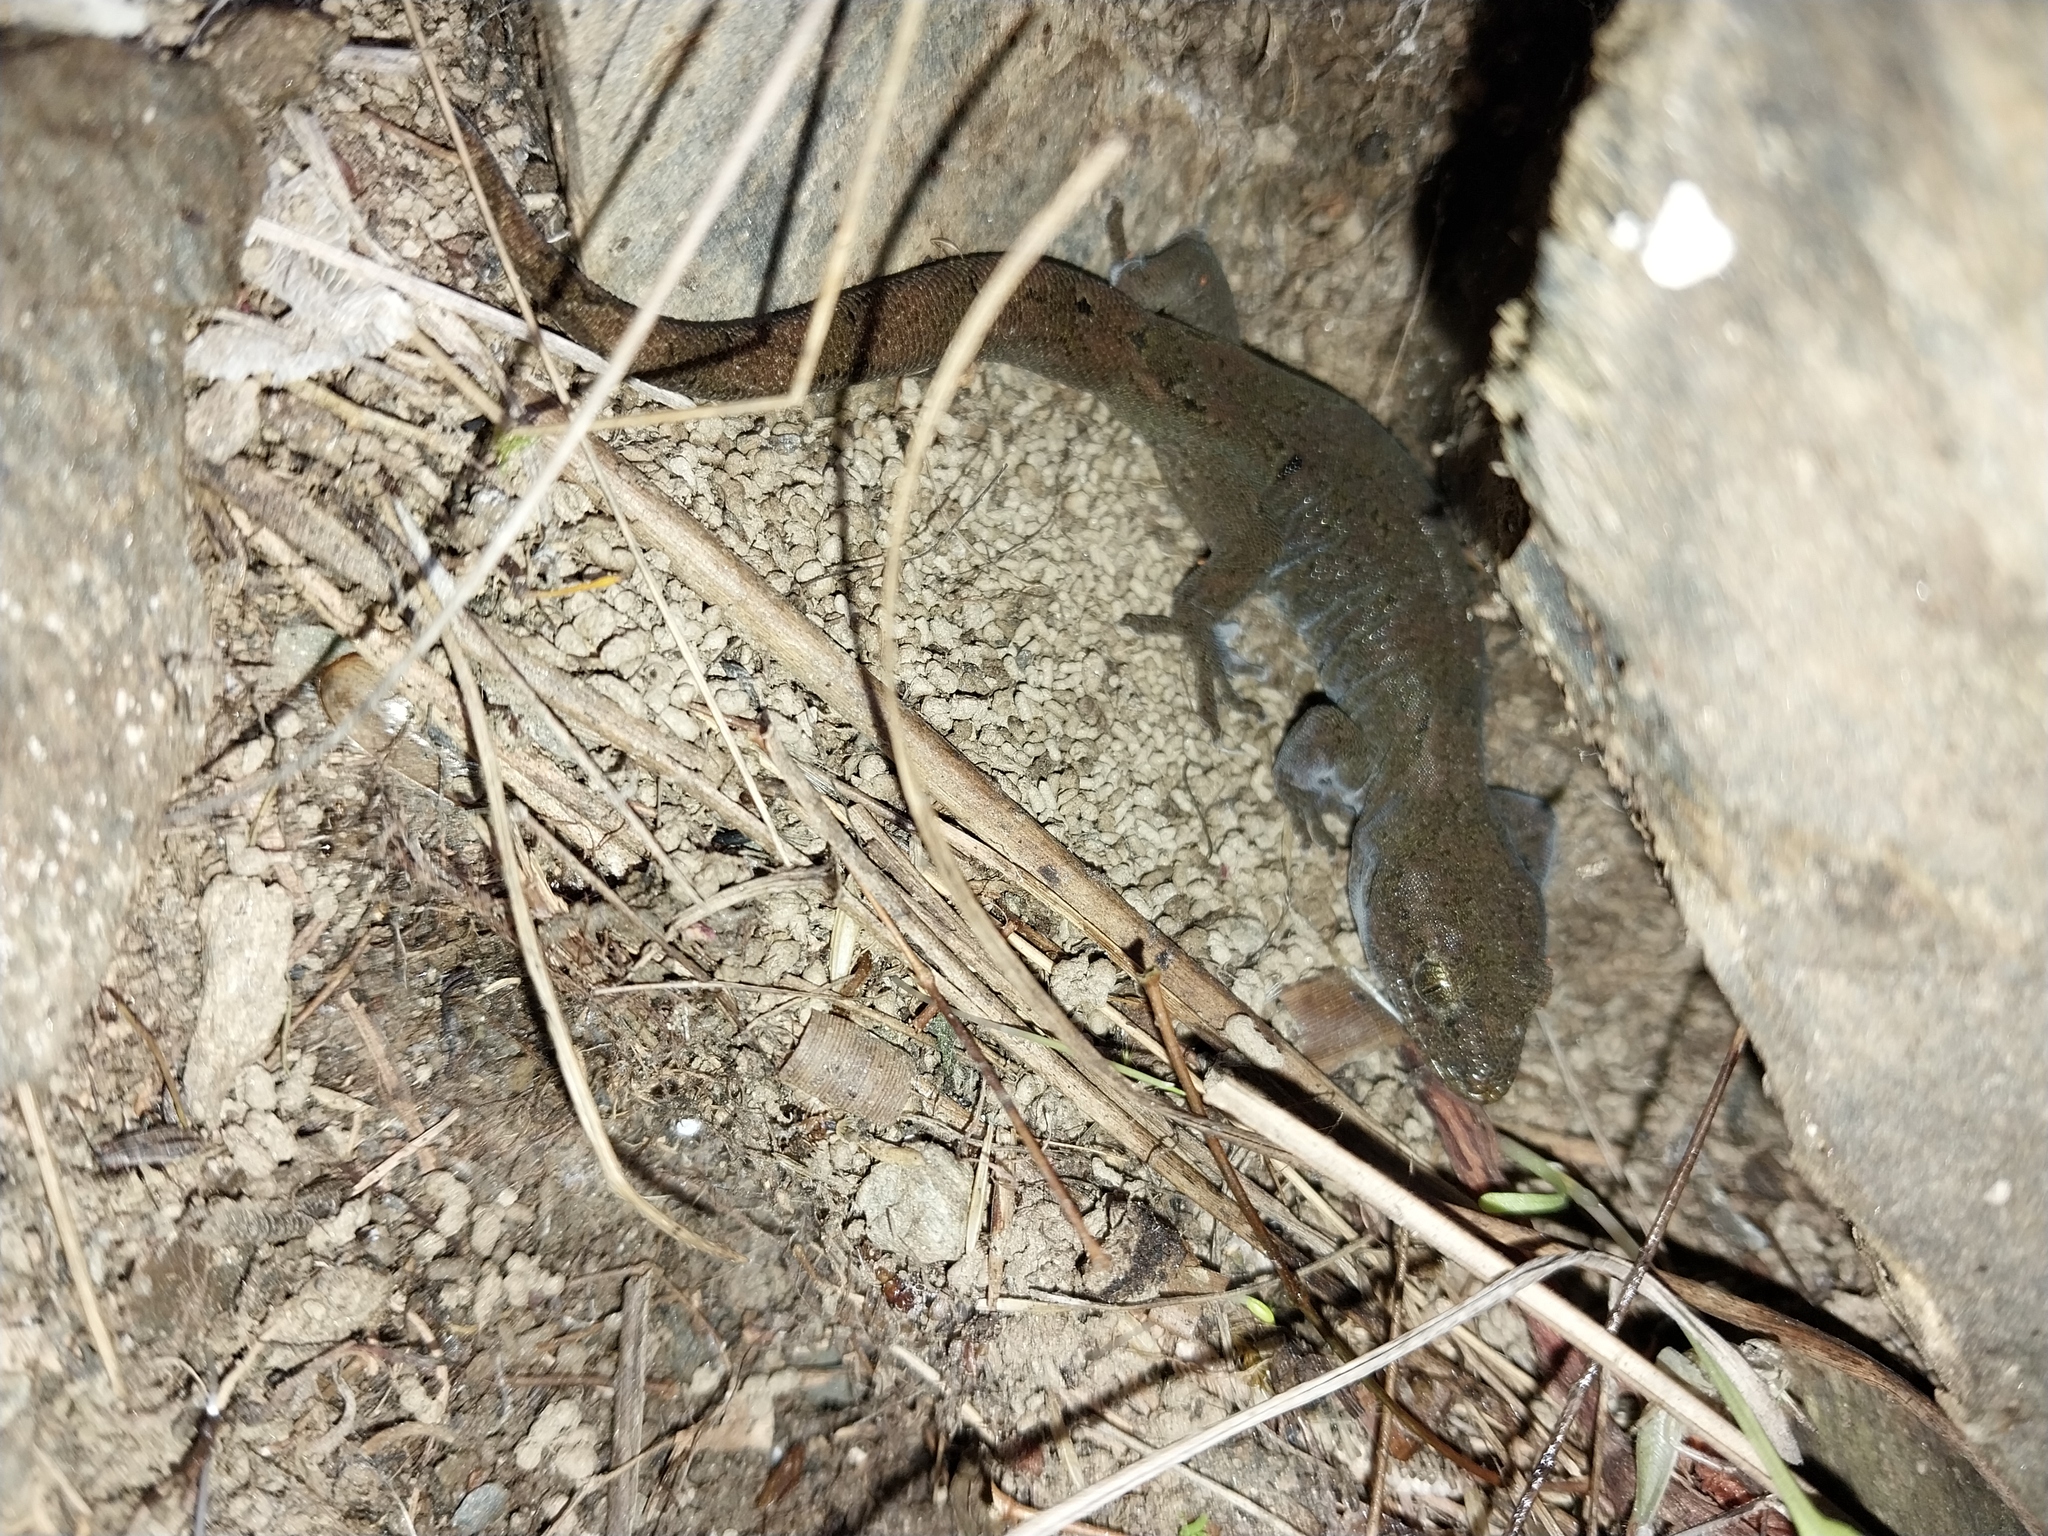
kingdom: Animalia
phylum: Chordata
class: Squamata
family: Diplodactylidae
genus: Woodworthia
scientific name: Woodworthia
